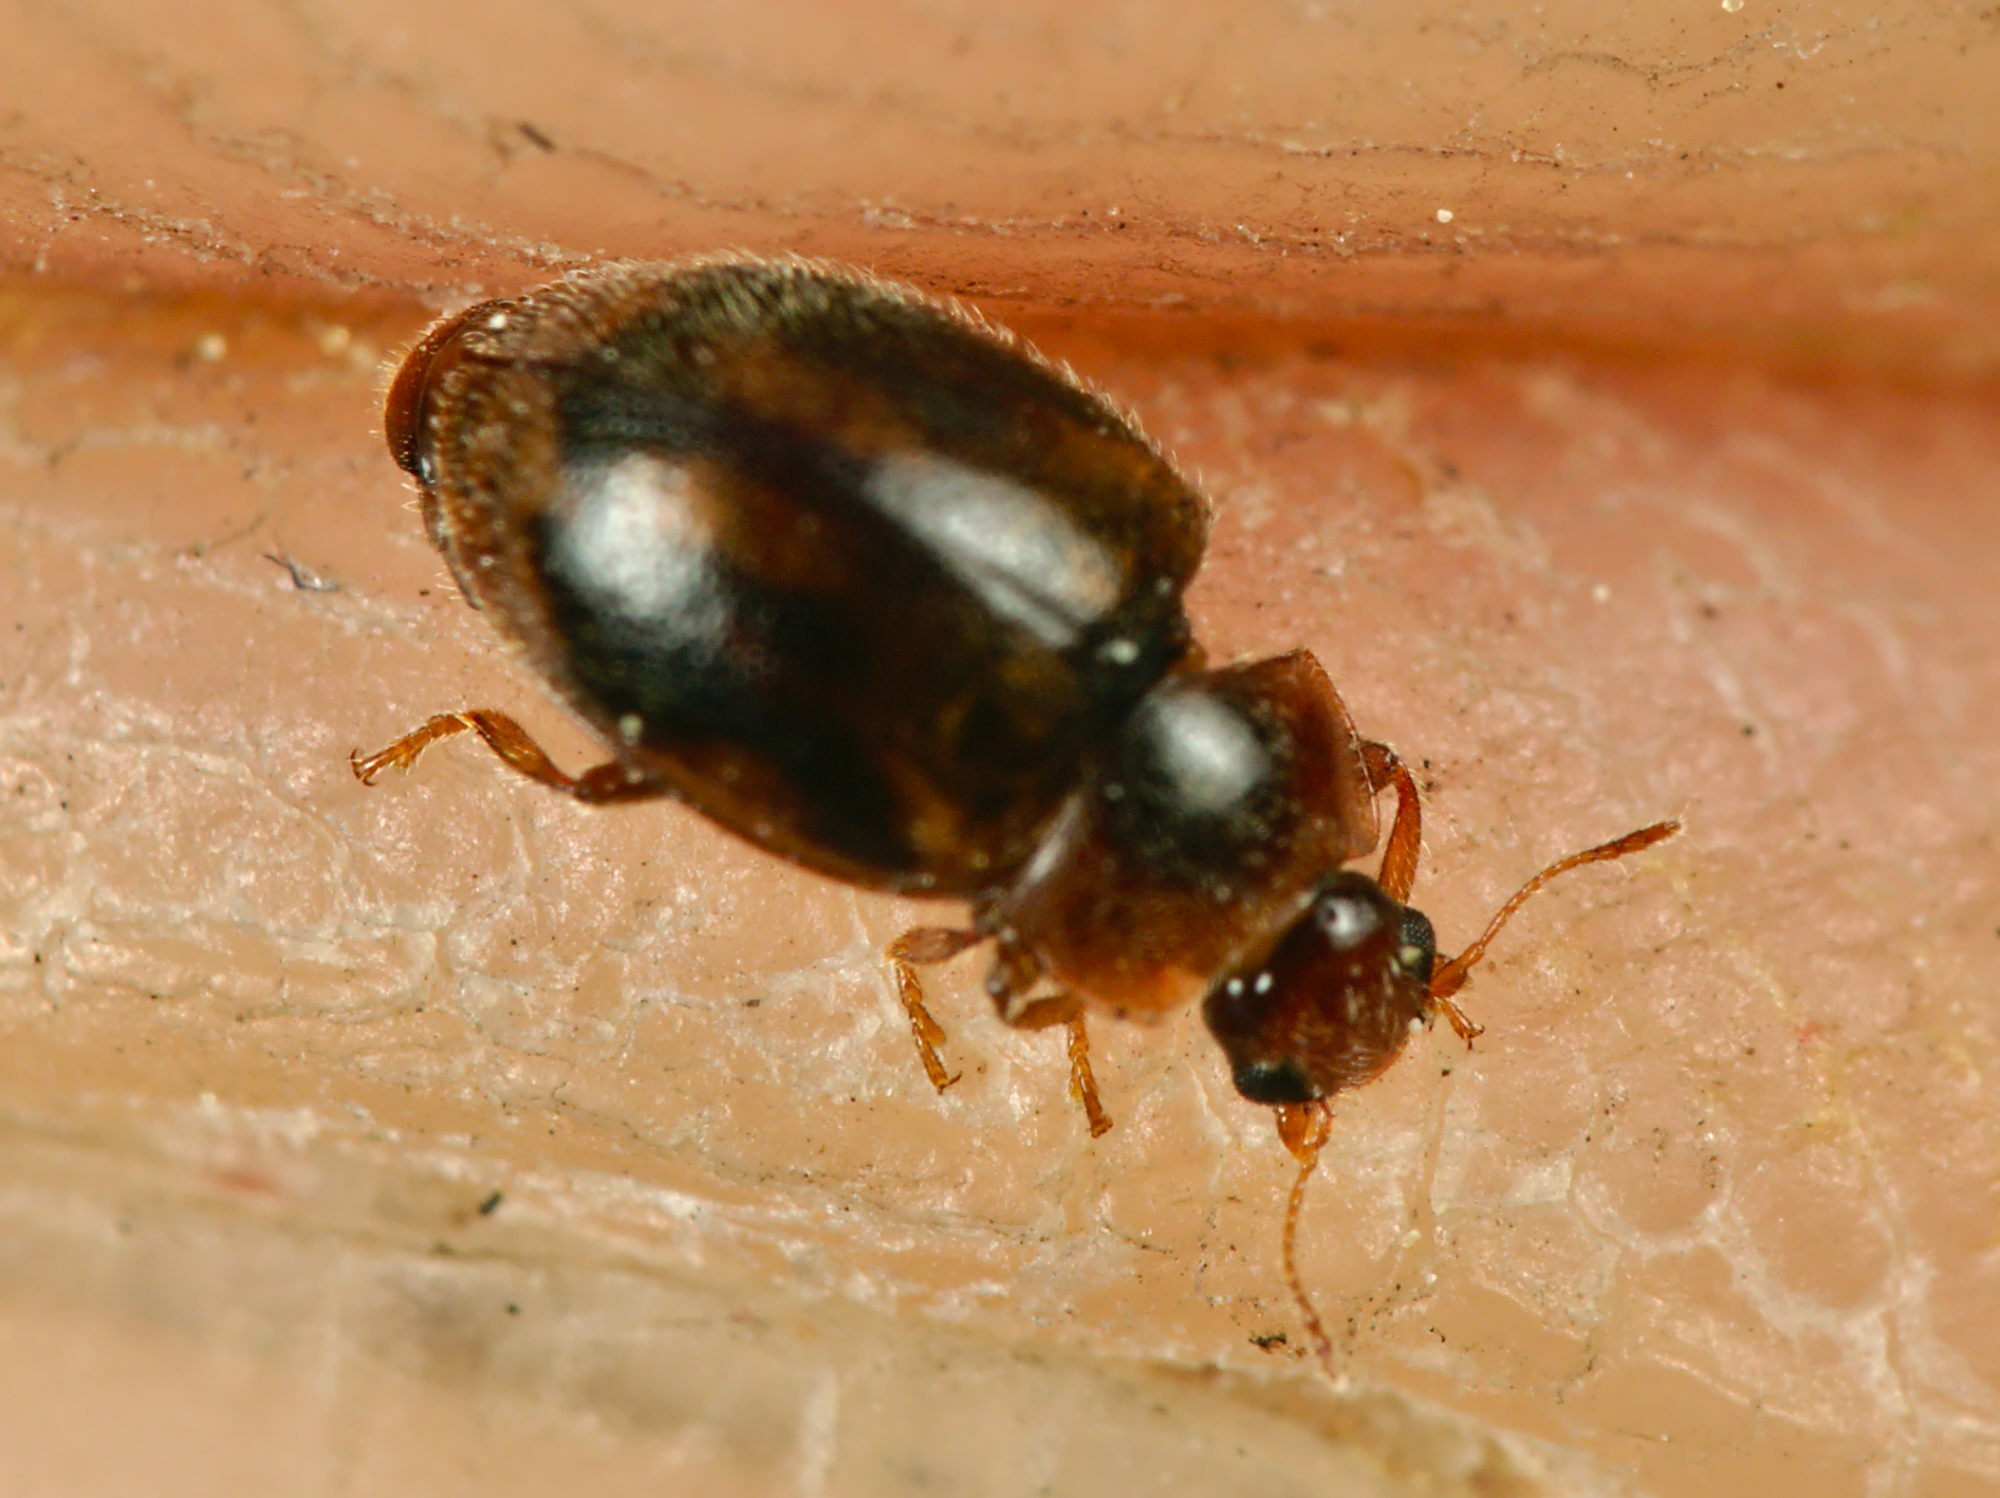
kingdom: Animalia
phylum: Arthropoda
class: Insecta
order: Coleoptera
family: Coccinellidae
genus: Rhyzobius
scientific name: Rhyzobius chrysomeloides
